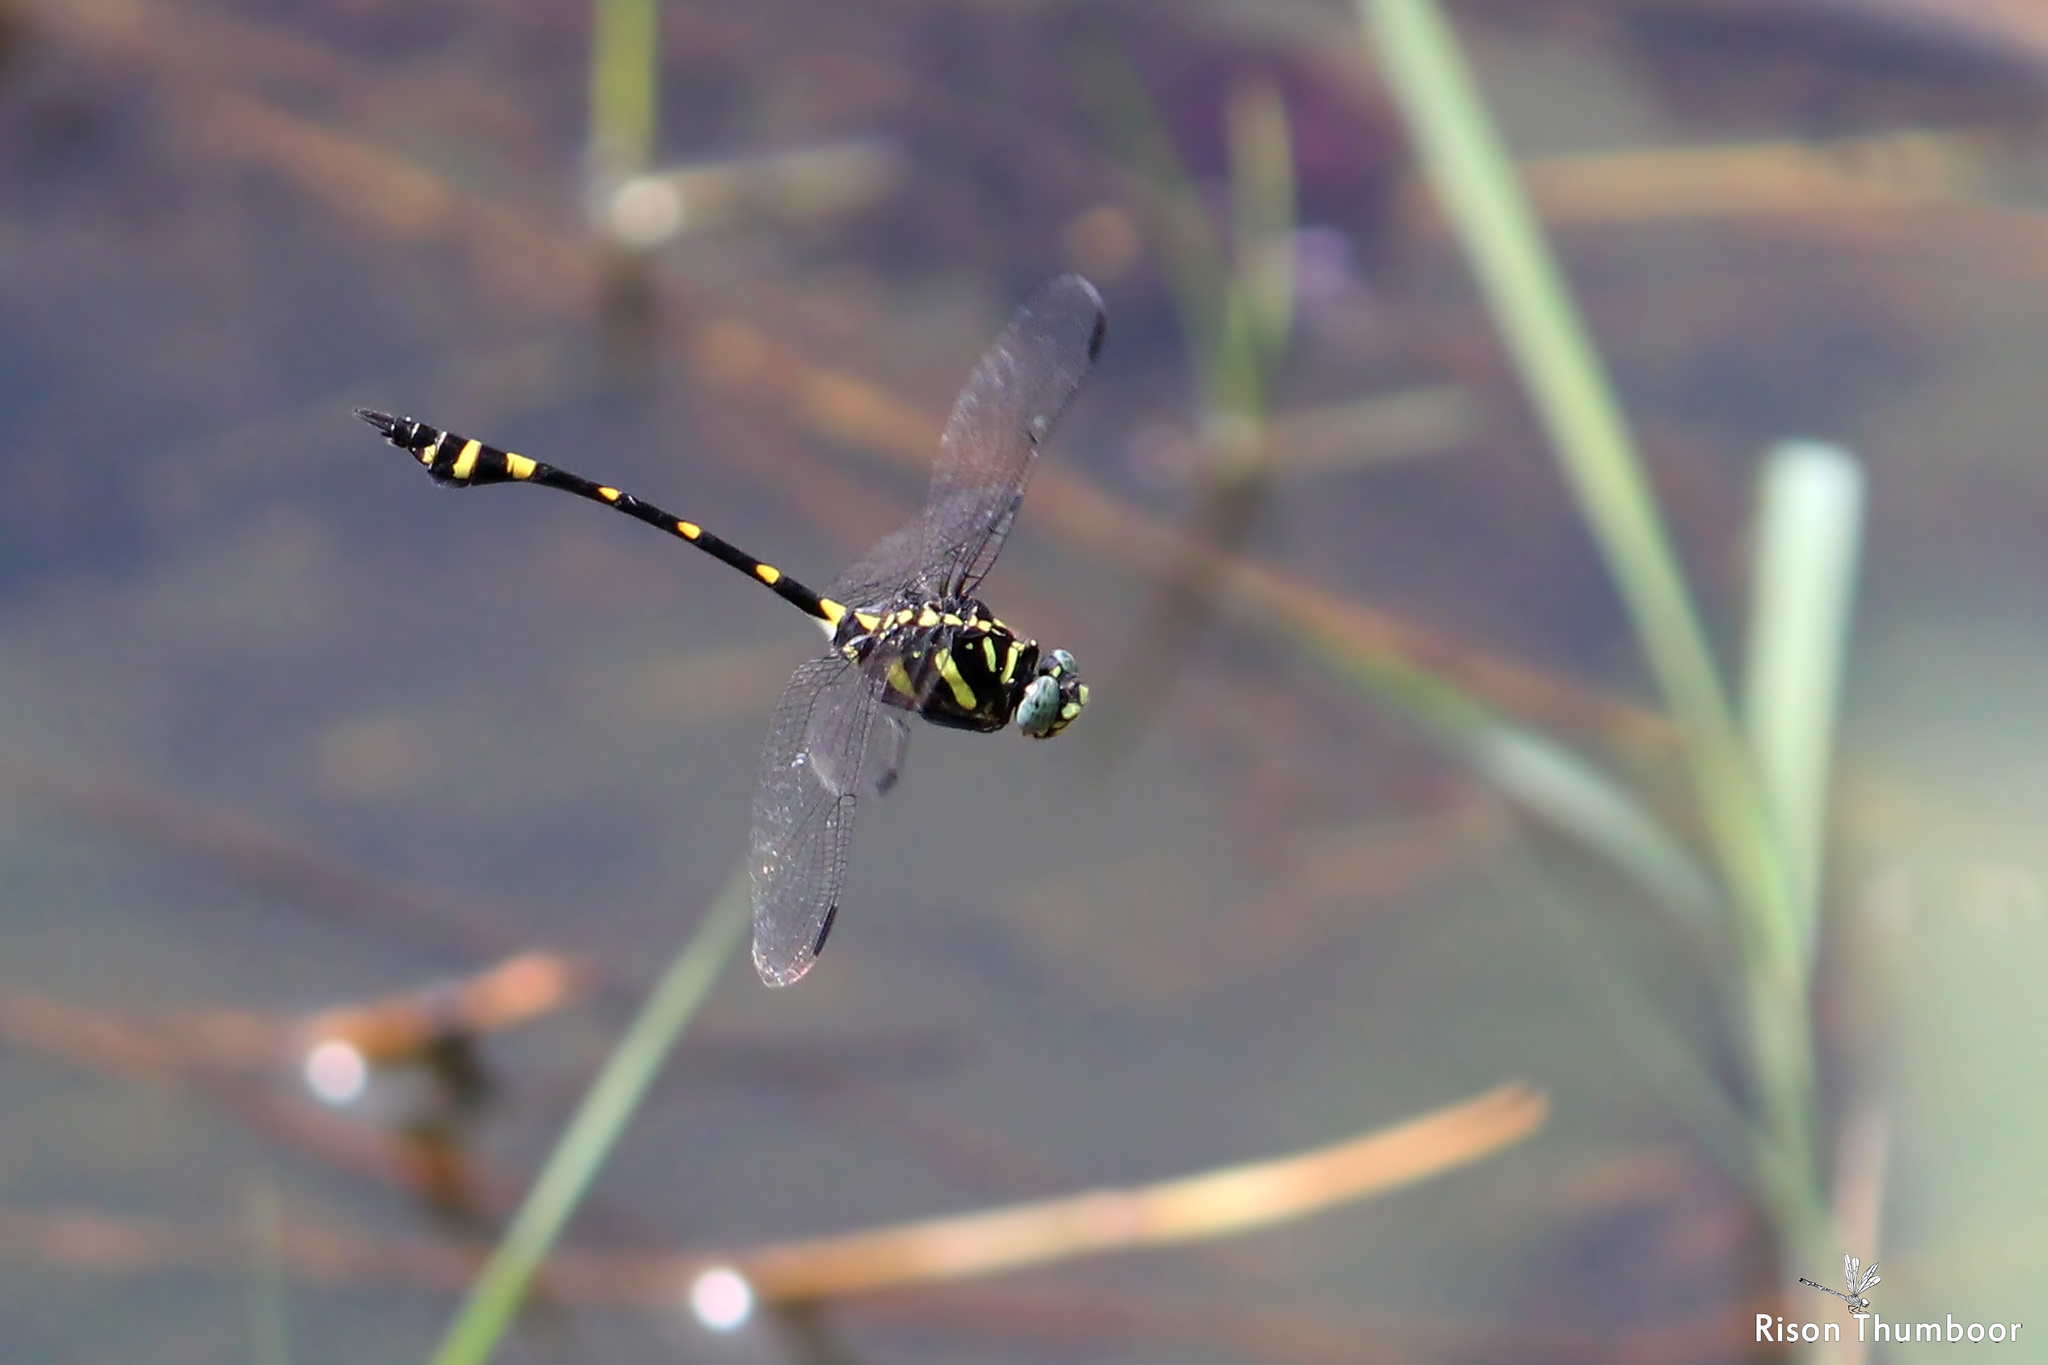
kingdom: Animalia
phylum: Arthropoda
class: Insecta
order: Odonata
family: Gomphidae
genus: Ictinogomphus
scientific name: Ictinogomphus rapax
